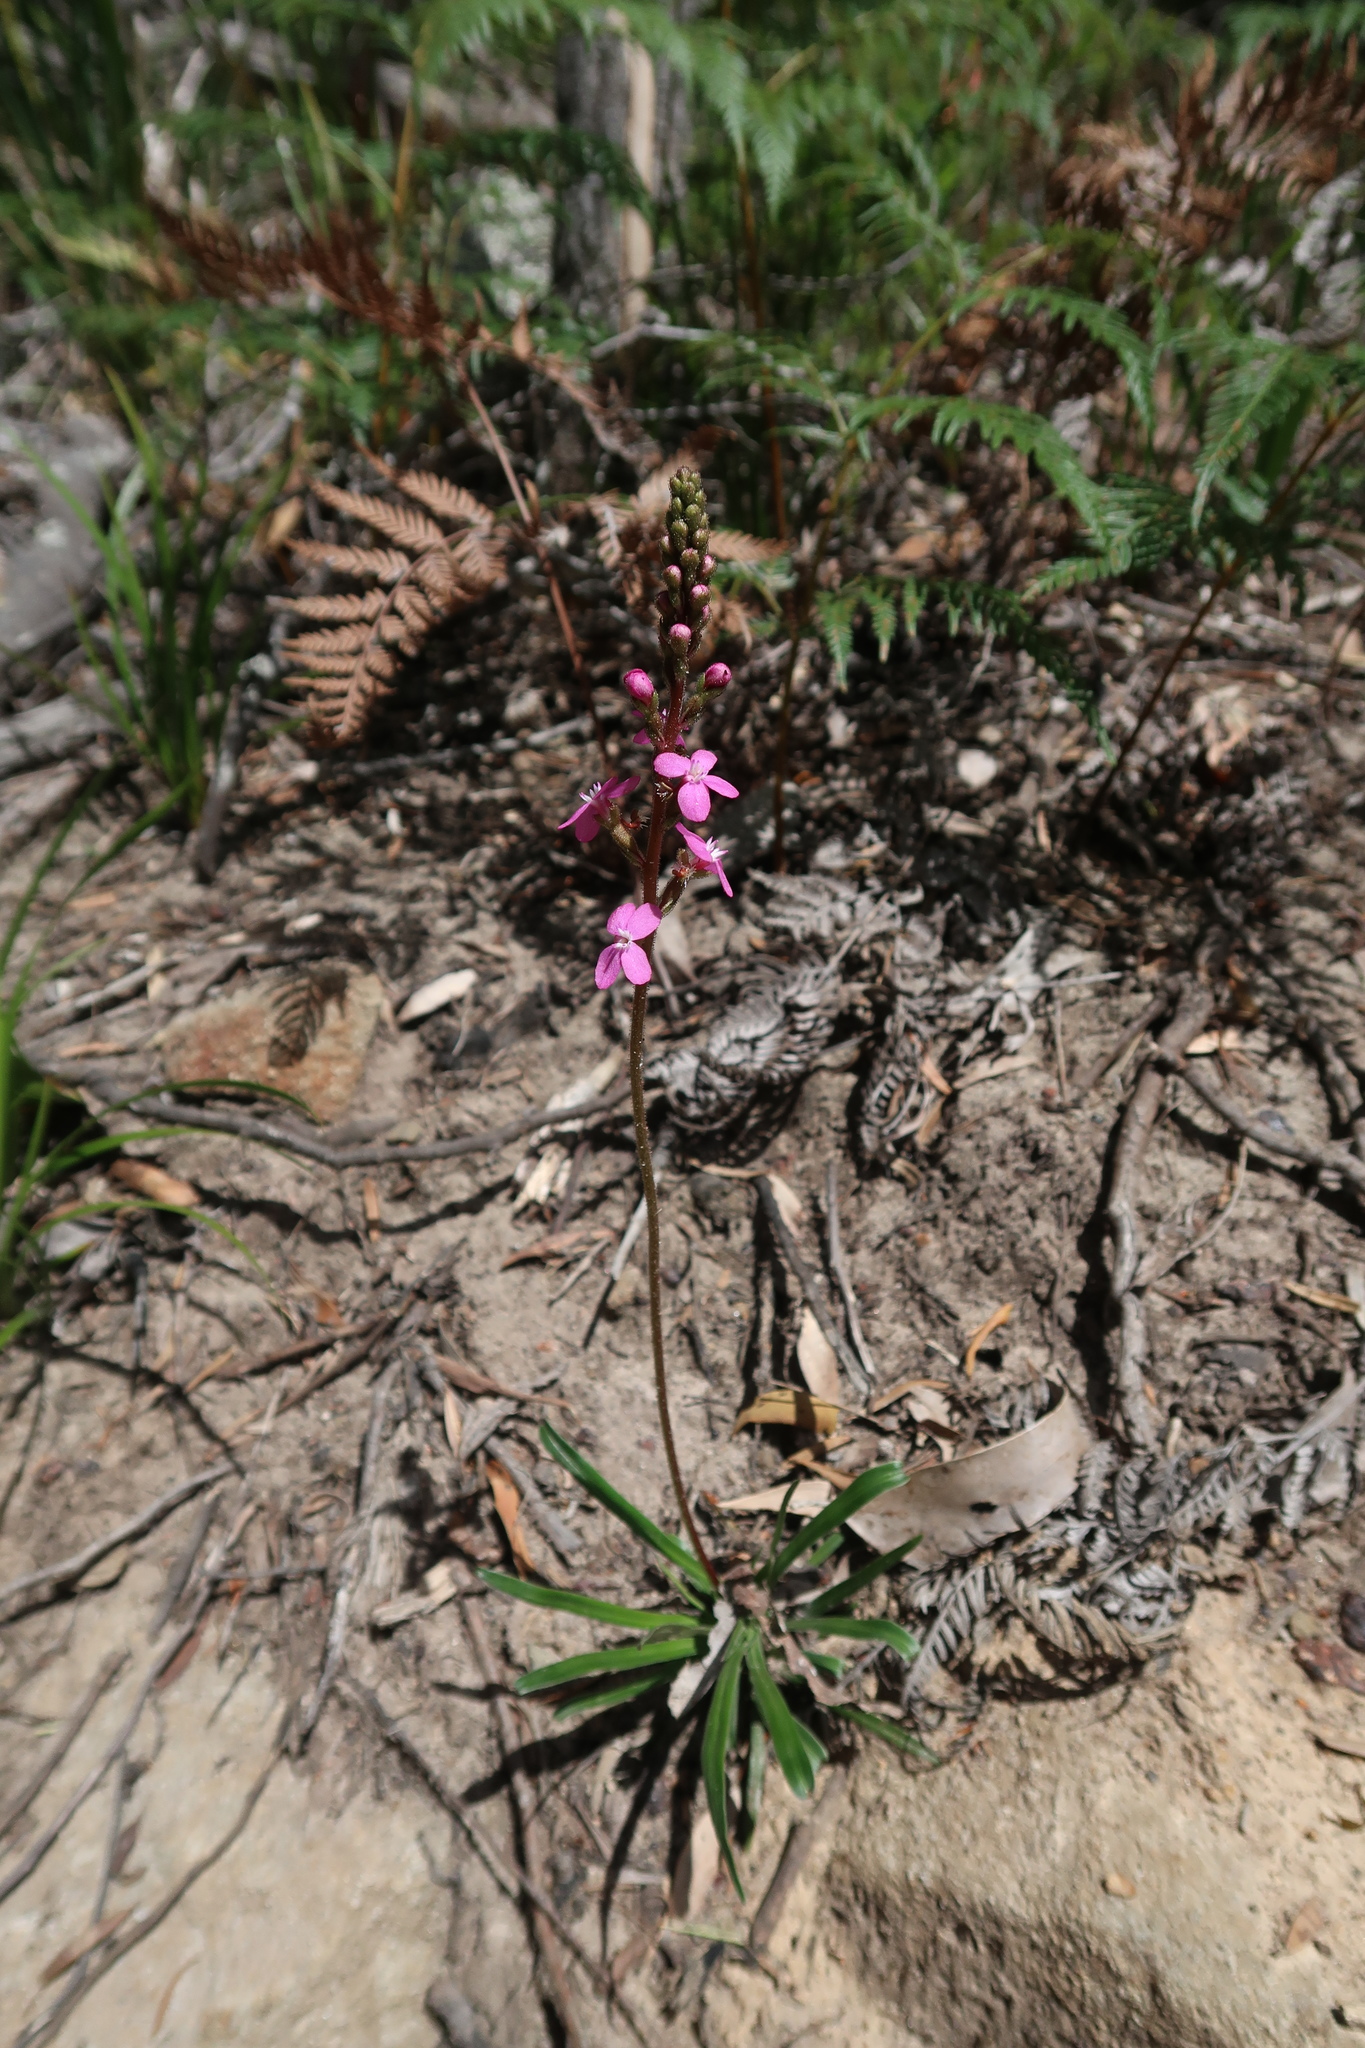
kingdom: Plantae
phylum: Tracheophyta
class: Magnoliopsida
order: Asterales
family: Stylidiaceae
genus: Stylidium
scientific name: Stylidium armeria
